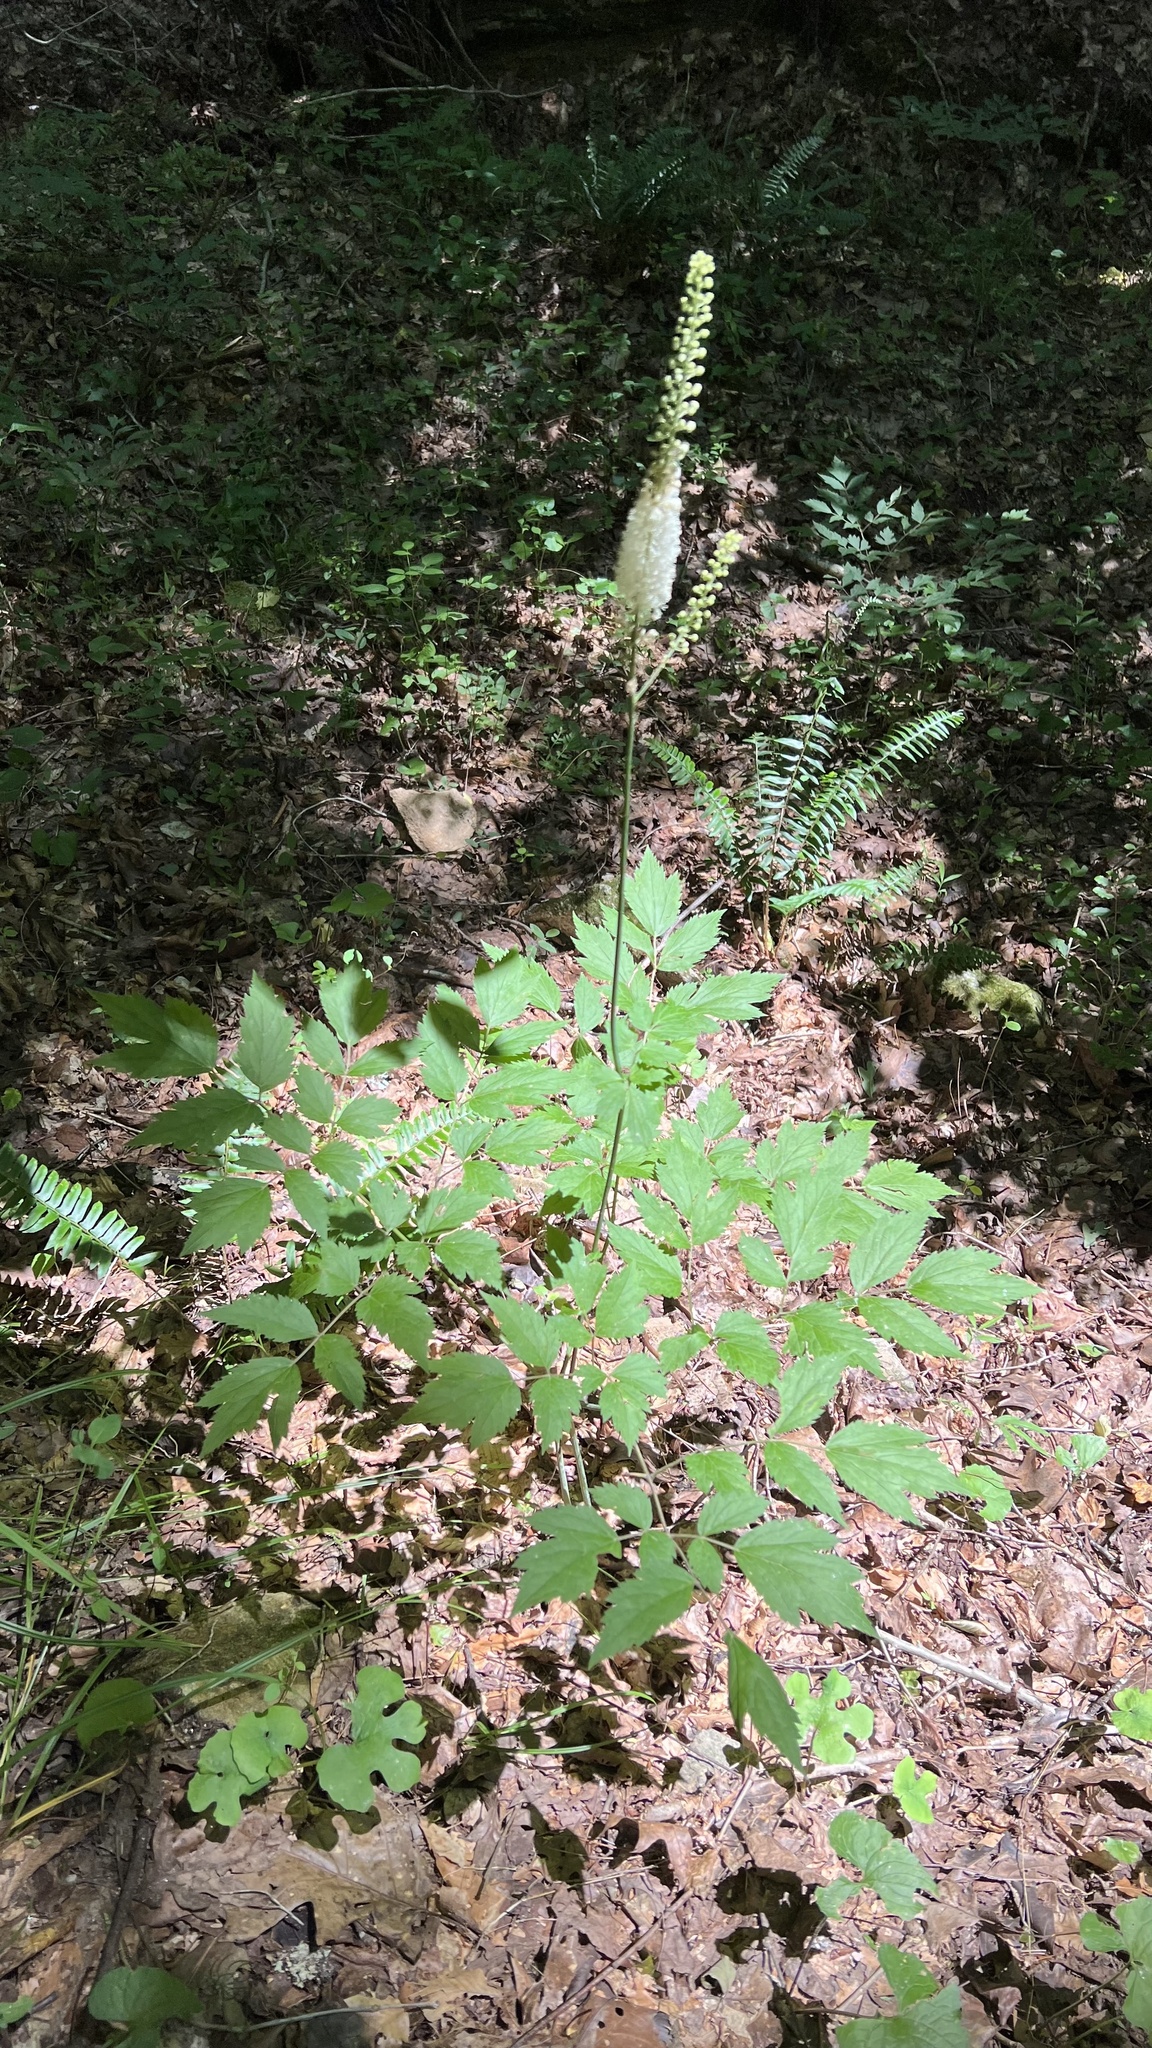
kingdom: Plantae
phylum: Tracheophyta
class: Magnoliopsida
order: Ranunculales
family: Ranunculaceae
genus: Actaea
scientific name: Actaea racemosa
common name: Black cohosh
